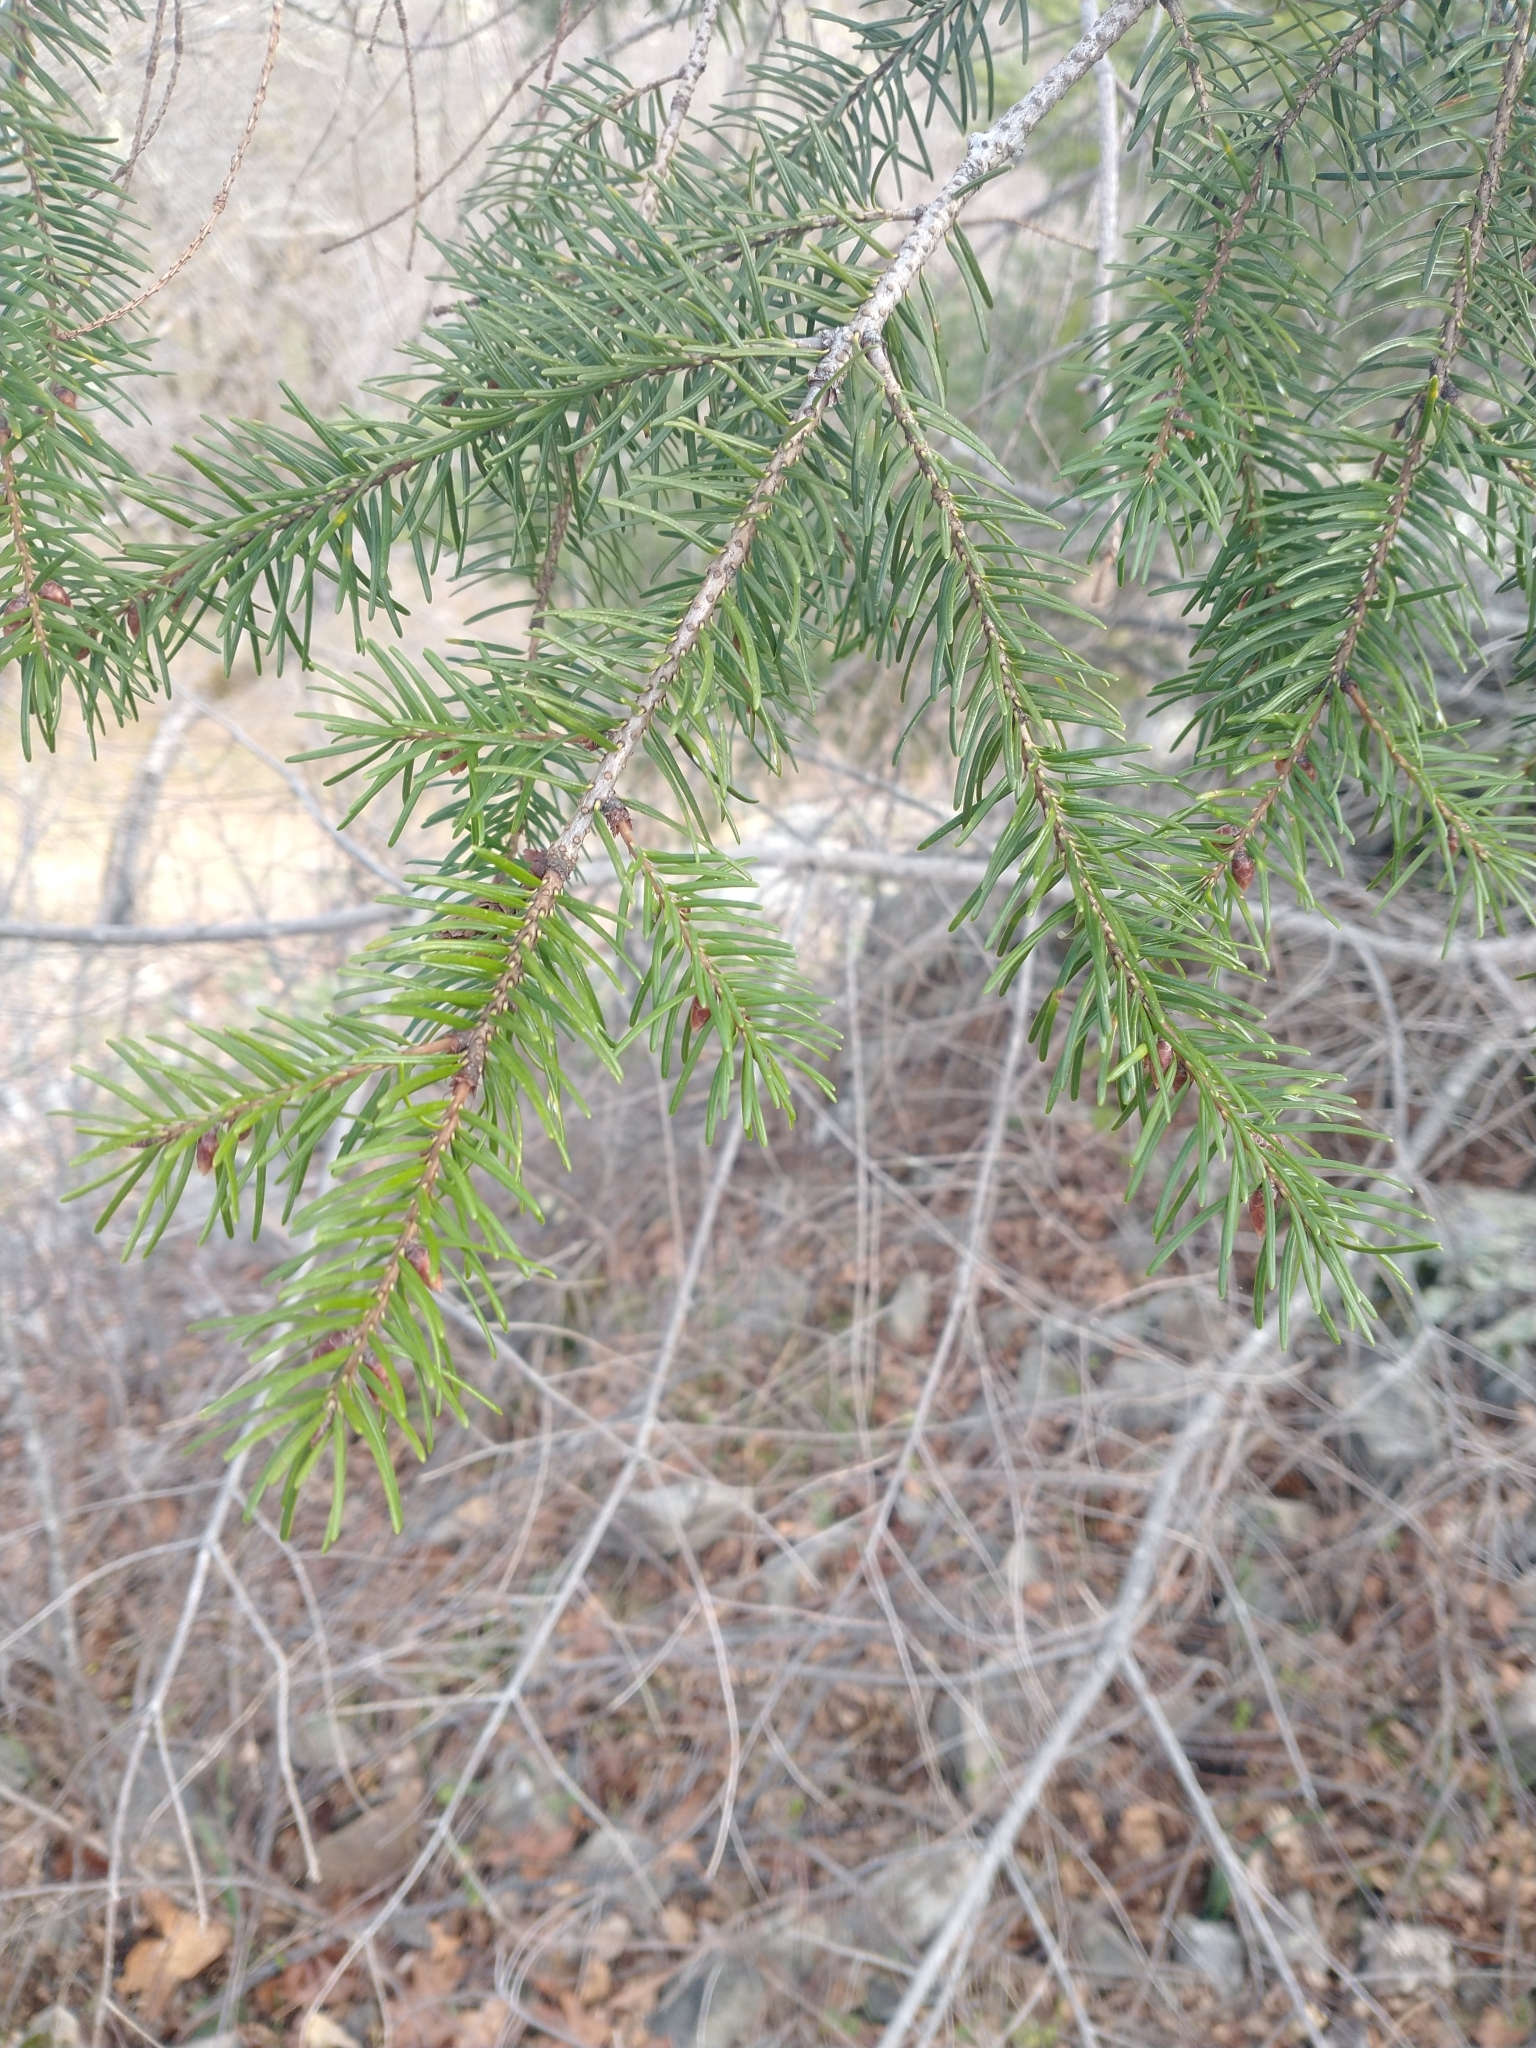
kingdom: Plantae
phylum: Tracheophyta
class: Pinopsida
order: Pinales
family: Pinaceae
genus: Pseudotsuga
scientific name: Pseudotsuga menziesii
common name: Douglas fir
